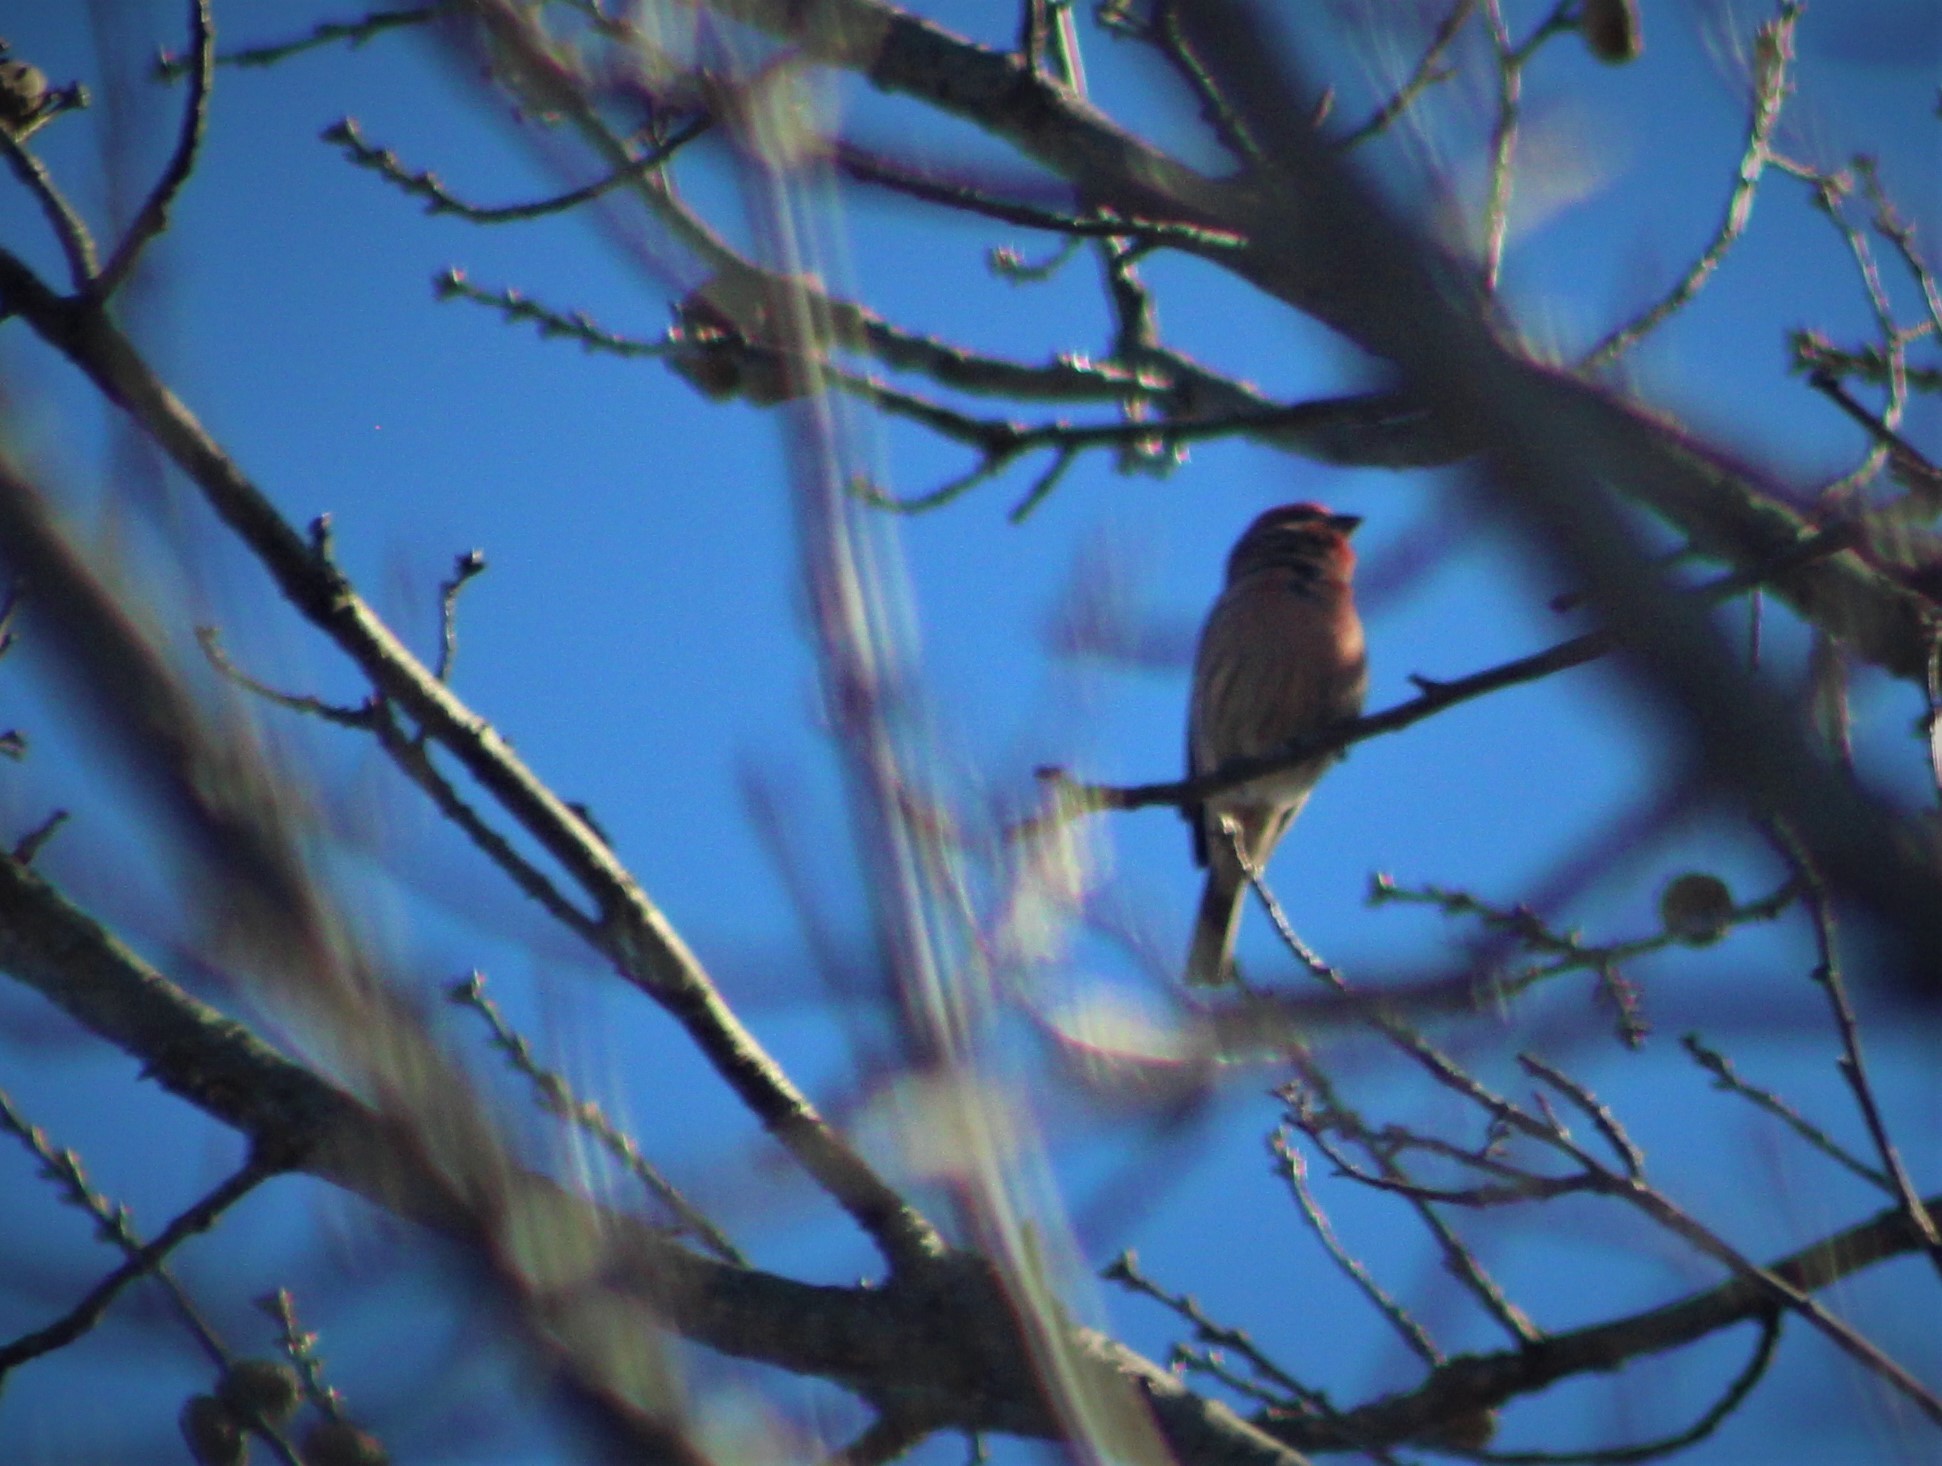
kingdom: Animalia
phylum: Chordata
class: Aves
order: Passeriformes
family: Fringillidae
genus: Haemorhous
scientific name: Haemorhous mexicanus
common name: House finch
